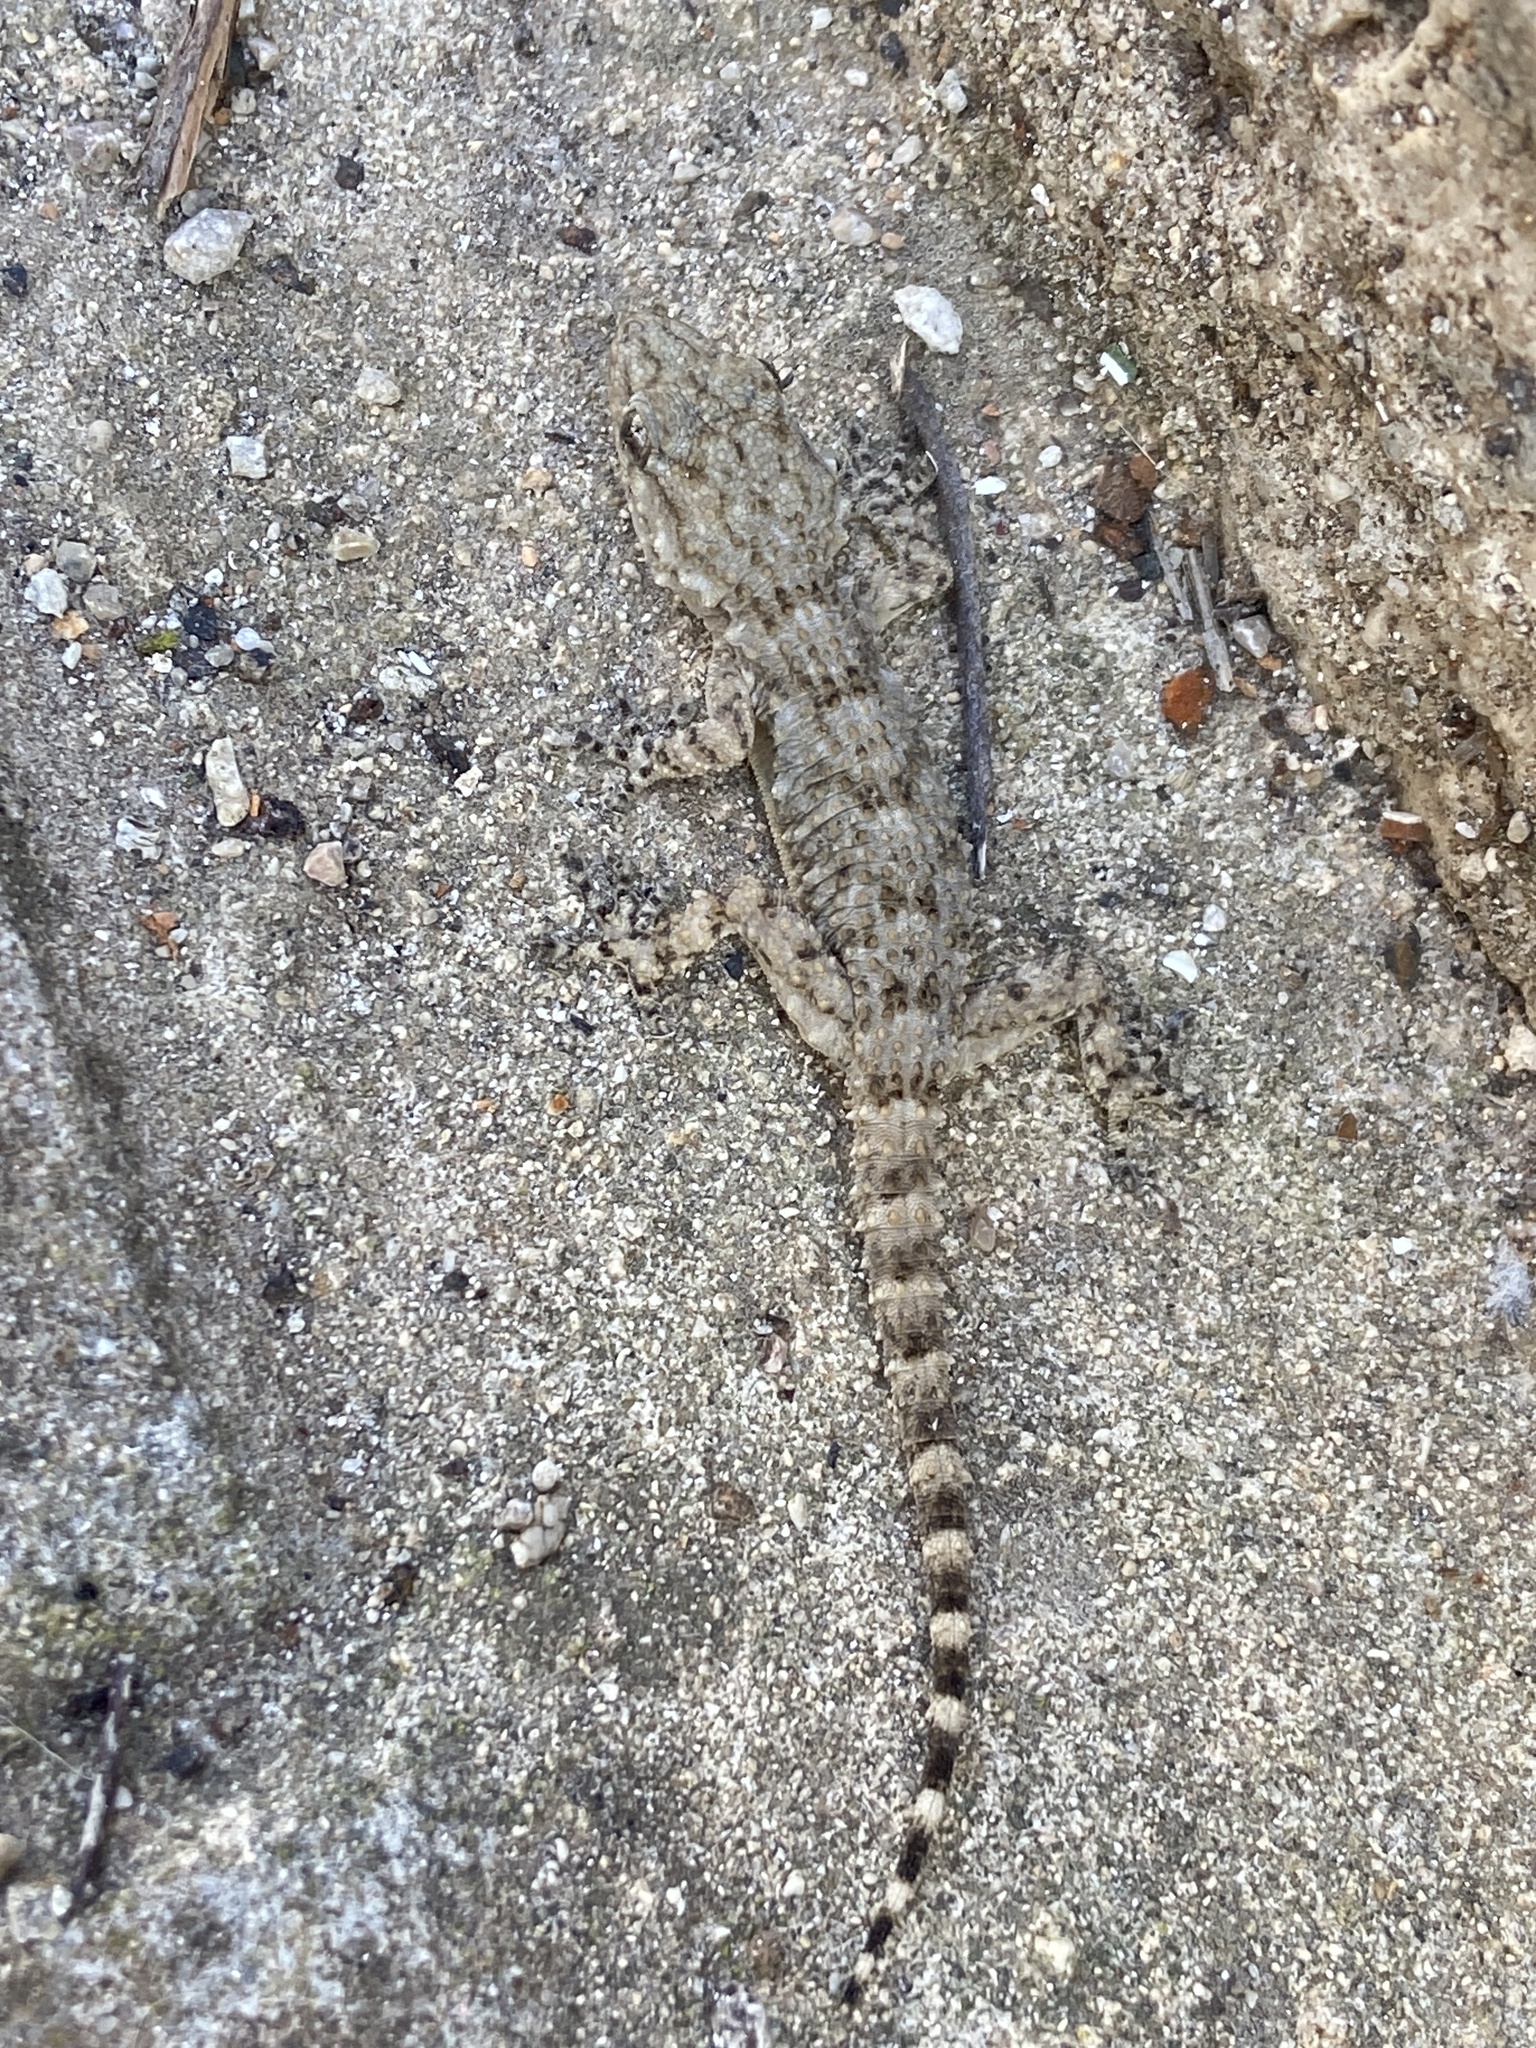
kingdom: Animalia
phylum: Chordata
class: Squamata
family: Phyllodactylidae
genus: Tarentola
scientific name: Tarentola mauritanica
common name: Moorish gecko
